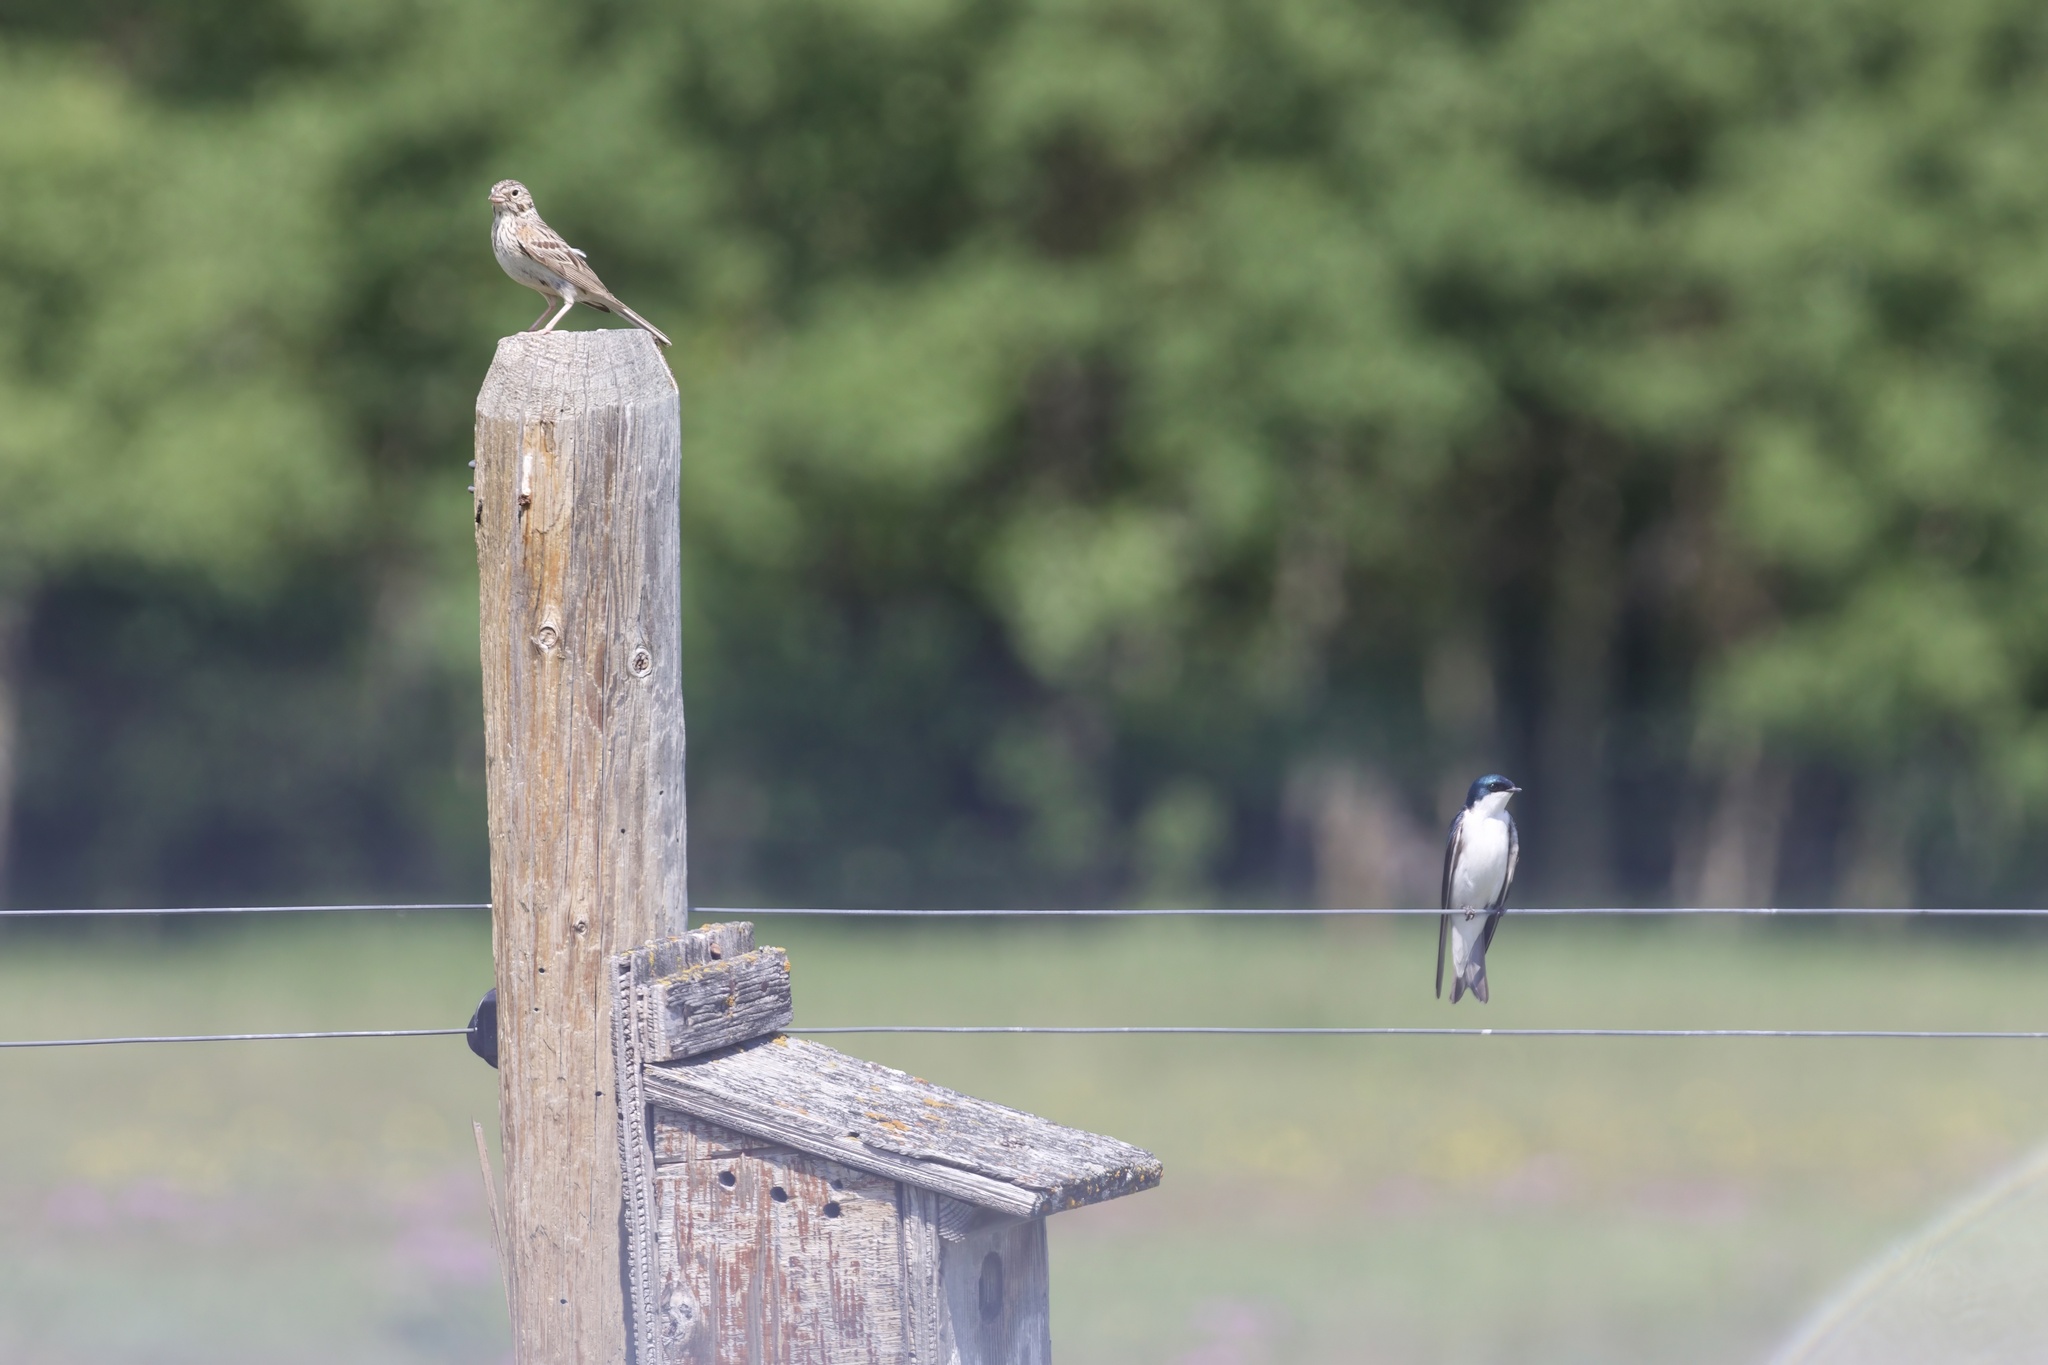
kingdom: Animalia
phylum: Chordata
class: Aves
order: Passeriformes
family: Hirundinidae
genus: Tachycineta
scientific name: Tachycineta bicolor
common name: Tree swallow
